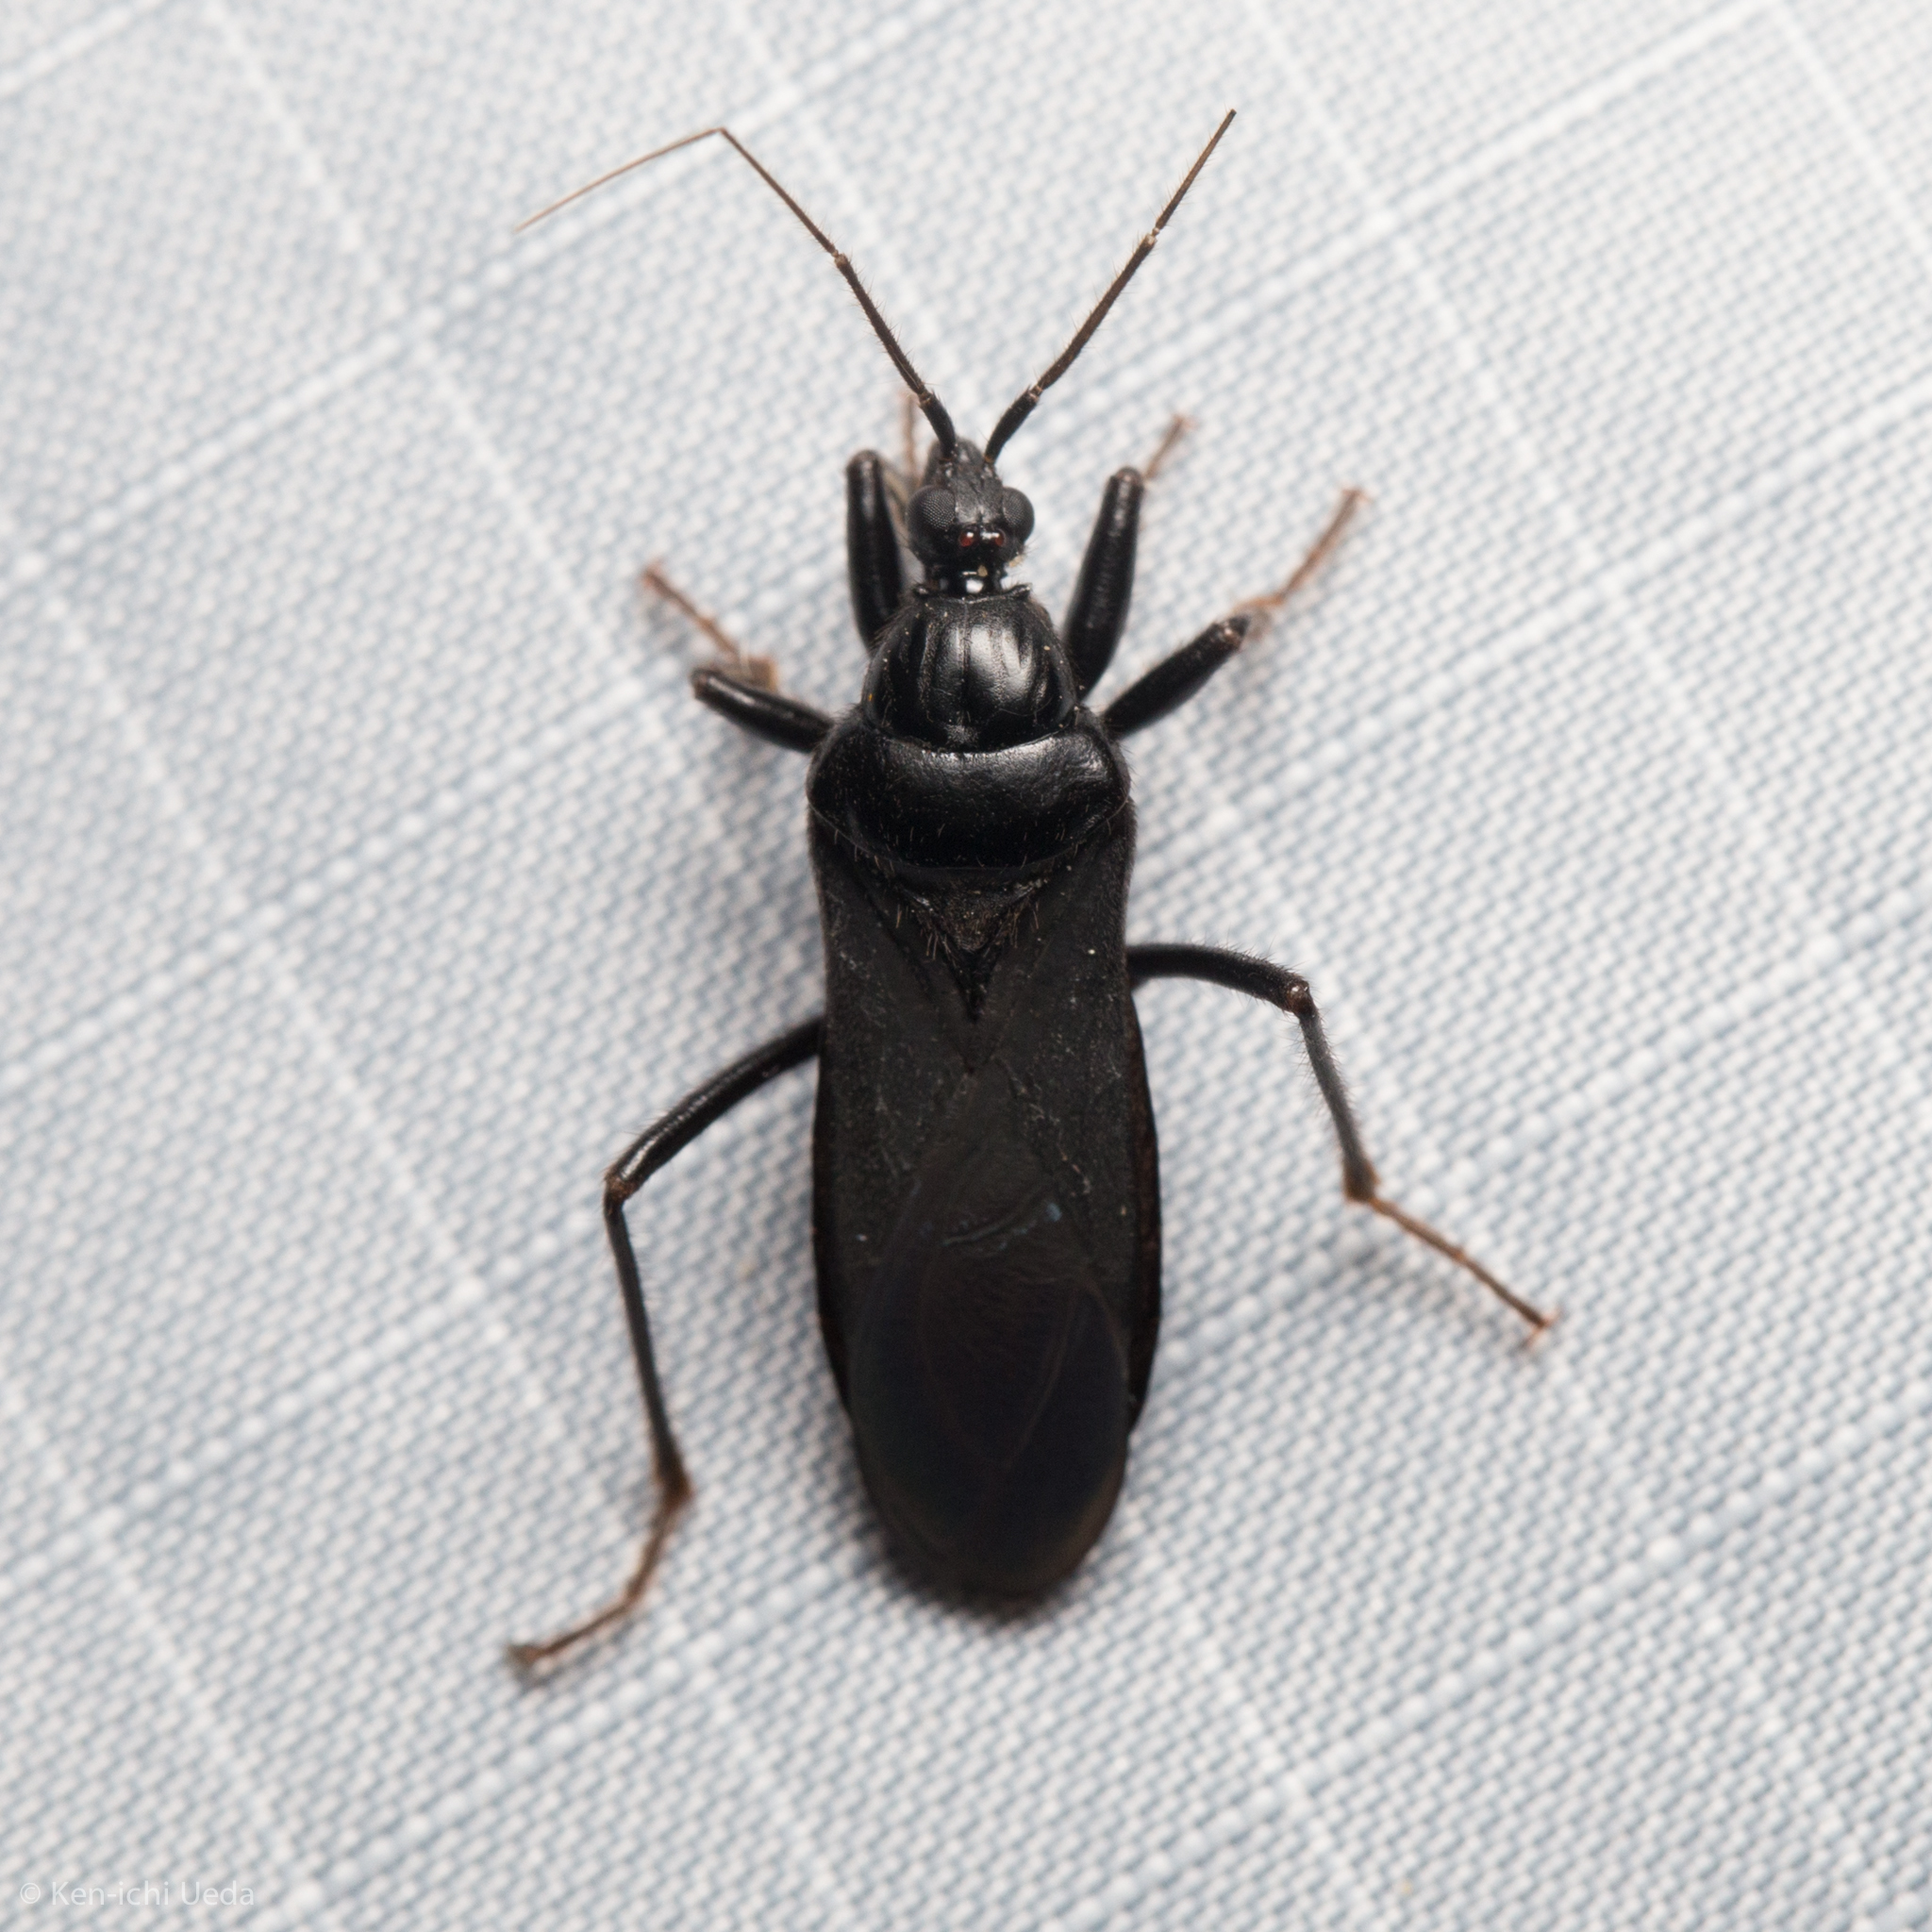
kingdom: Animalia
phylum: Arthropoda
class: Insecta
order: Hemiptera
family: Reduviidae
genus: Melanolestes
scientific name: Melanolestes picipes
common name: Assassin bug
